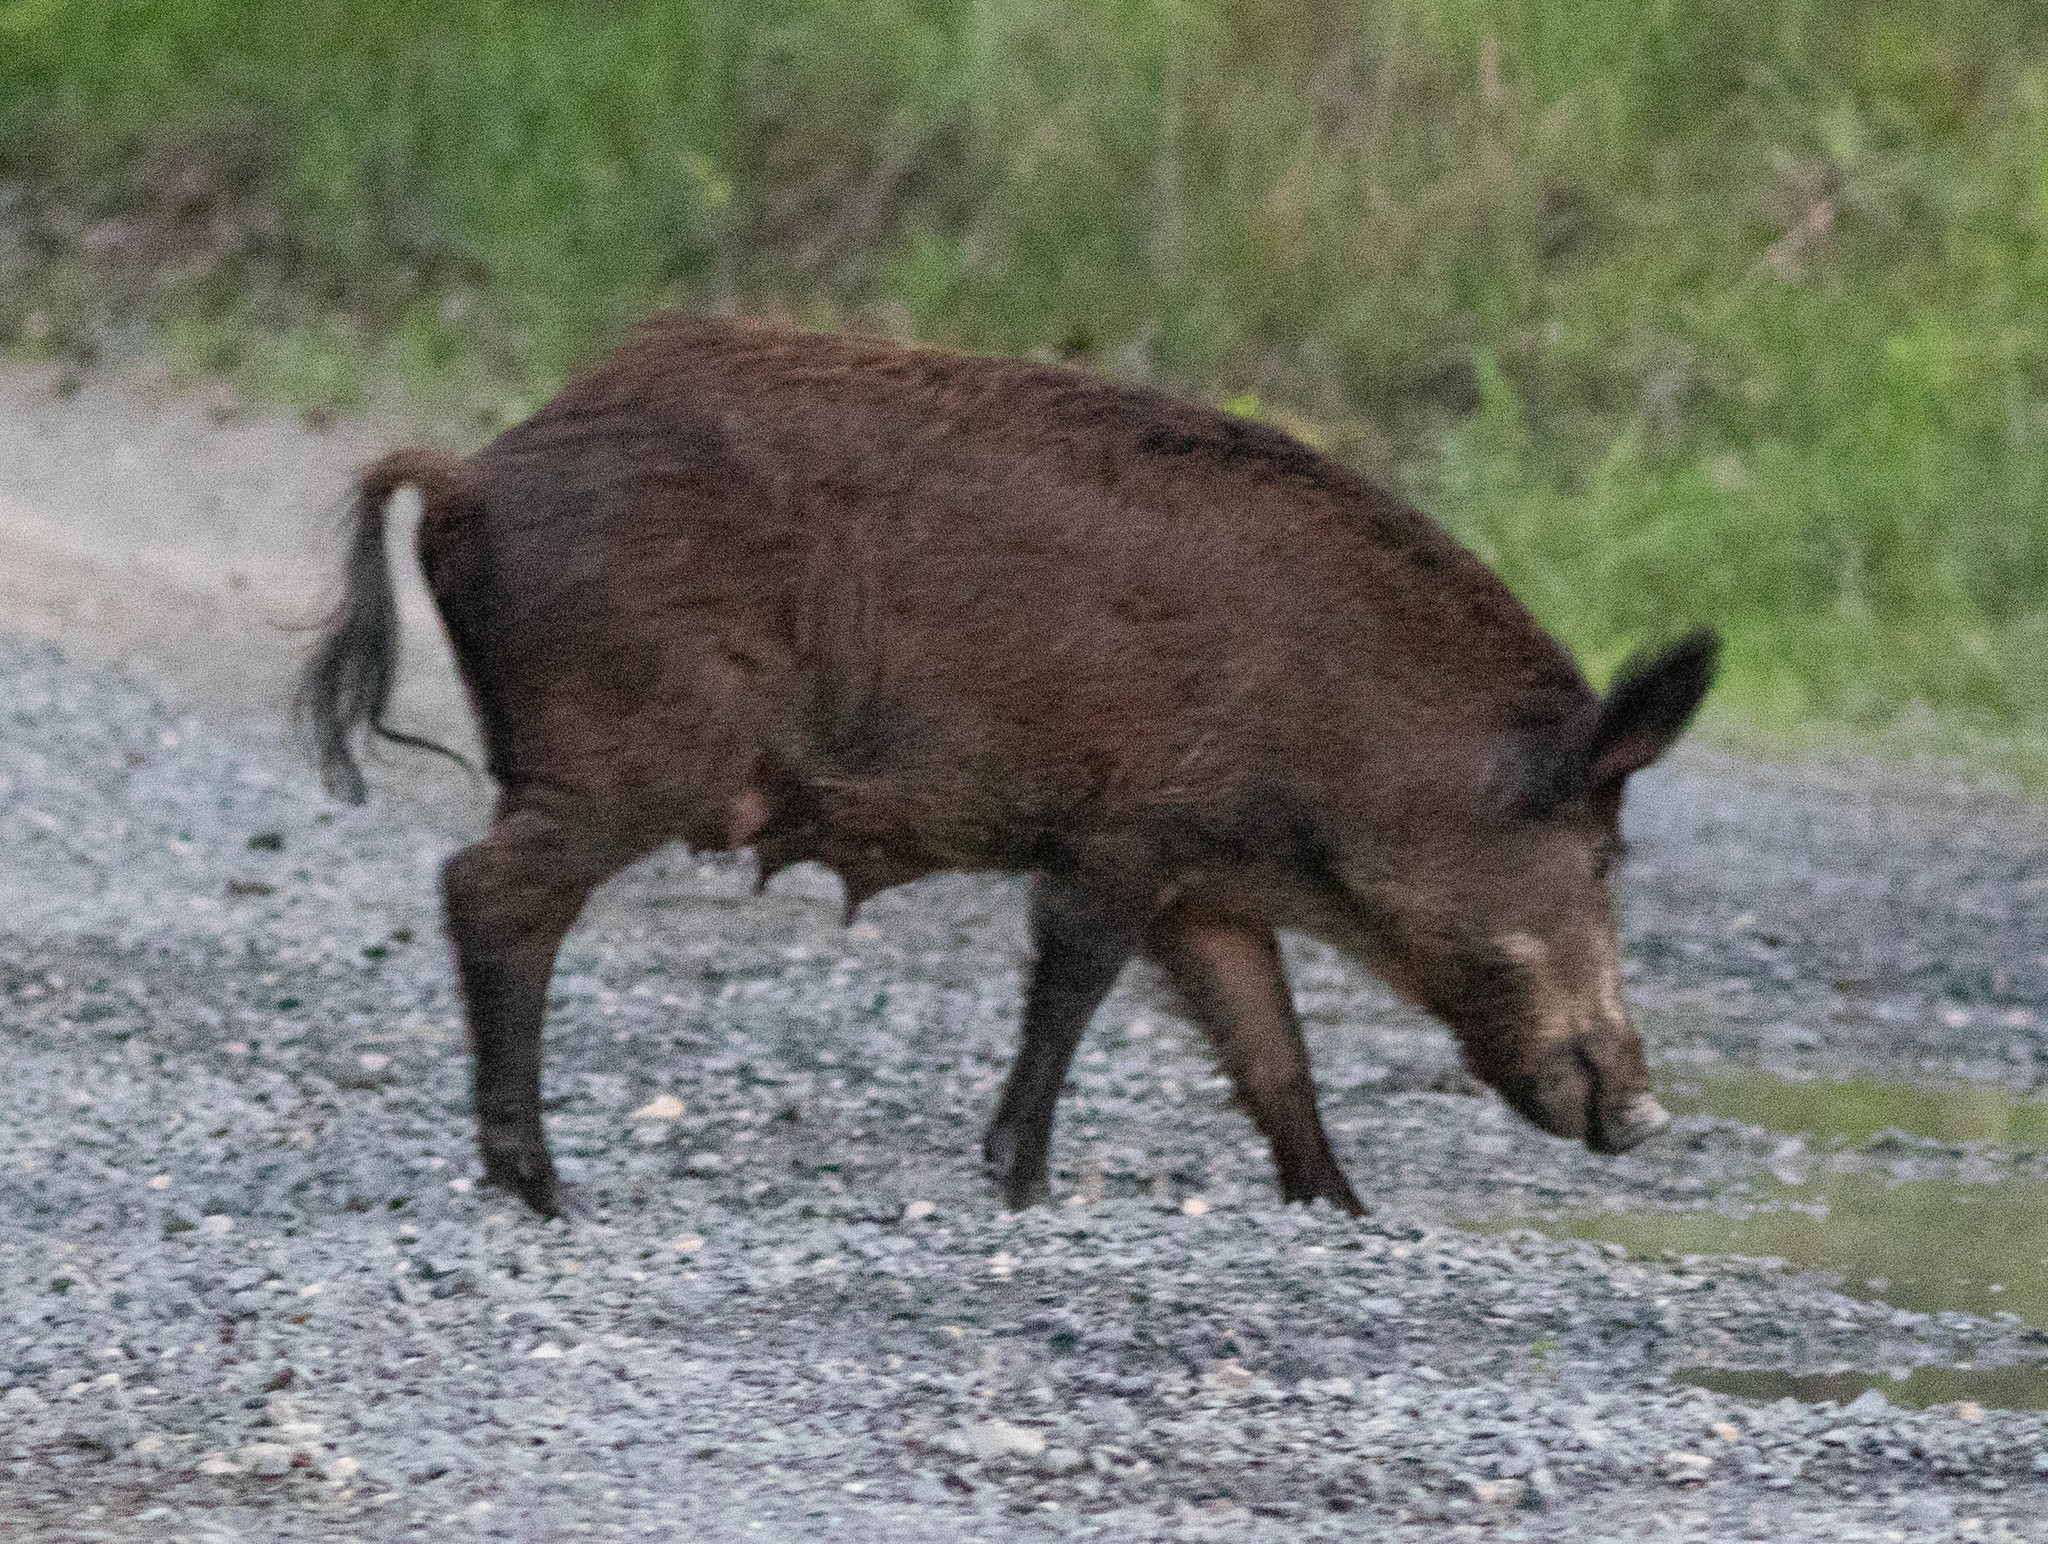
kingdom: Animalia
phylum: Chordata
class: Mammalia
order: Artiodactyla
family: Suidae
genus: Sus
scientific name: Sus scrofa
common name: Wild boar
